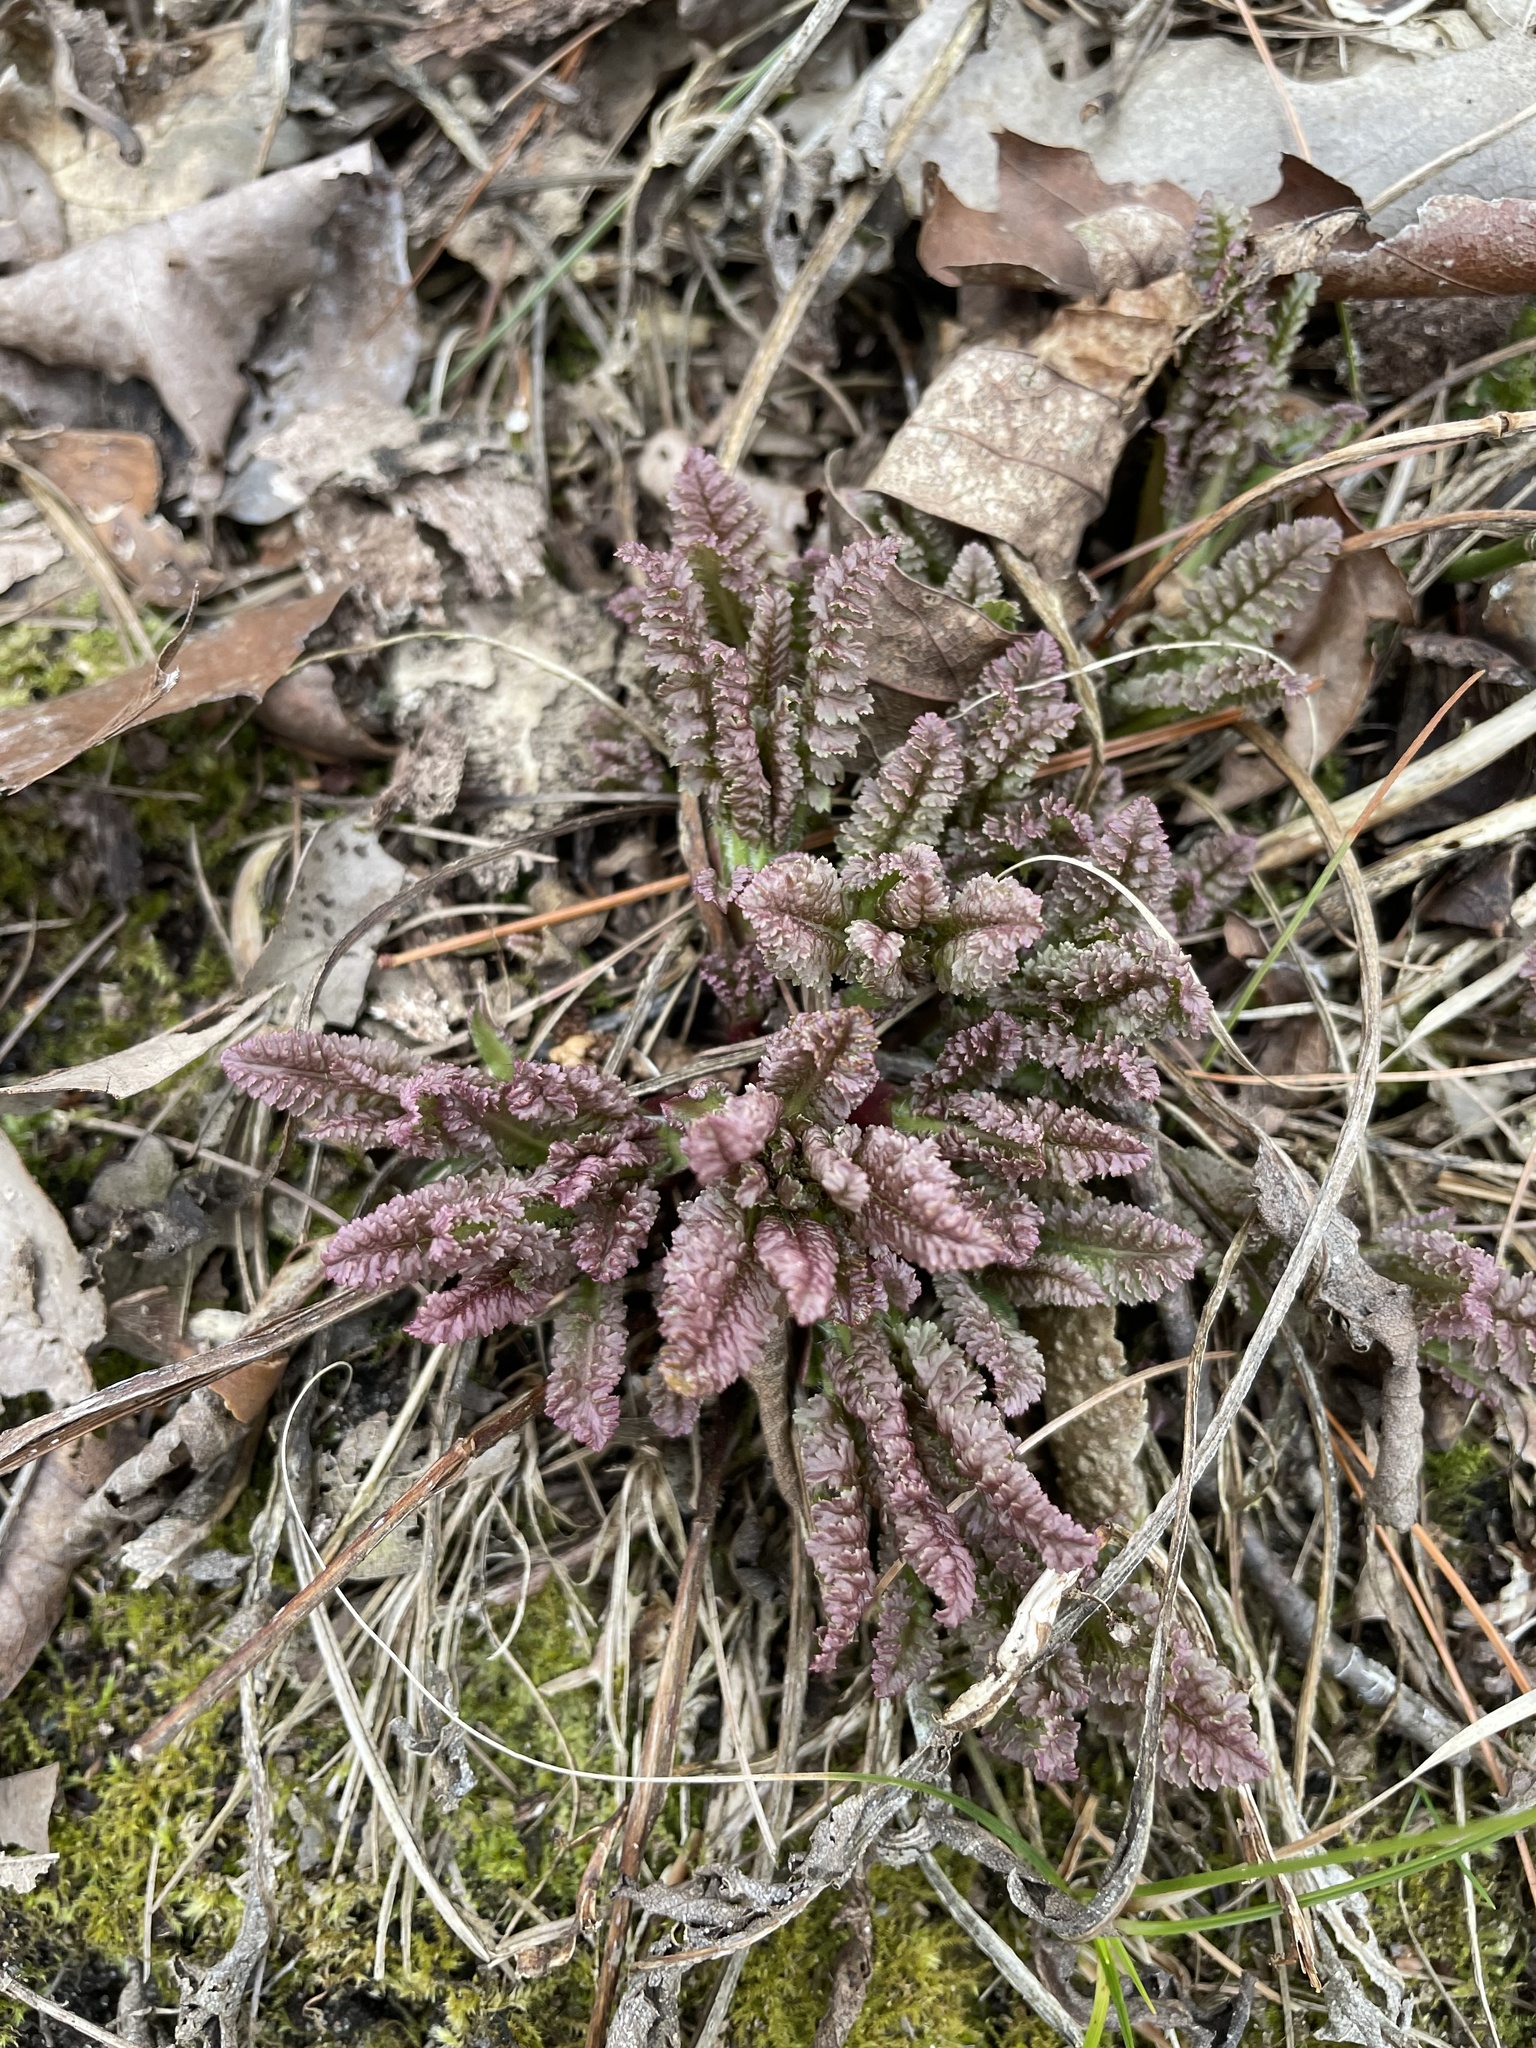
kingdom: Plantae
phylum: Tracheophyta
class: Magnoliopsida
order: Lamiales
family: Orobanchaceae
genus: Pedicularis
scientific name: Pedicularis canadensis
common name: Early lousewort
